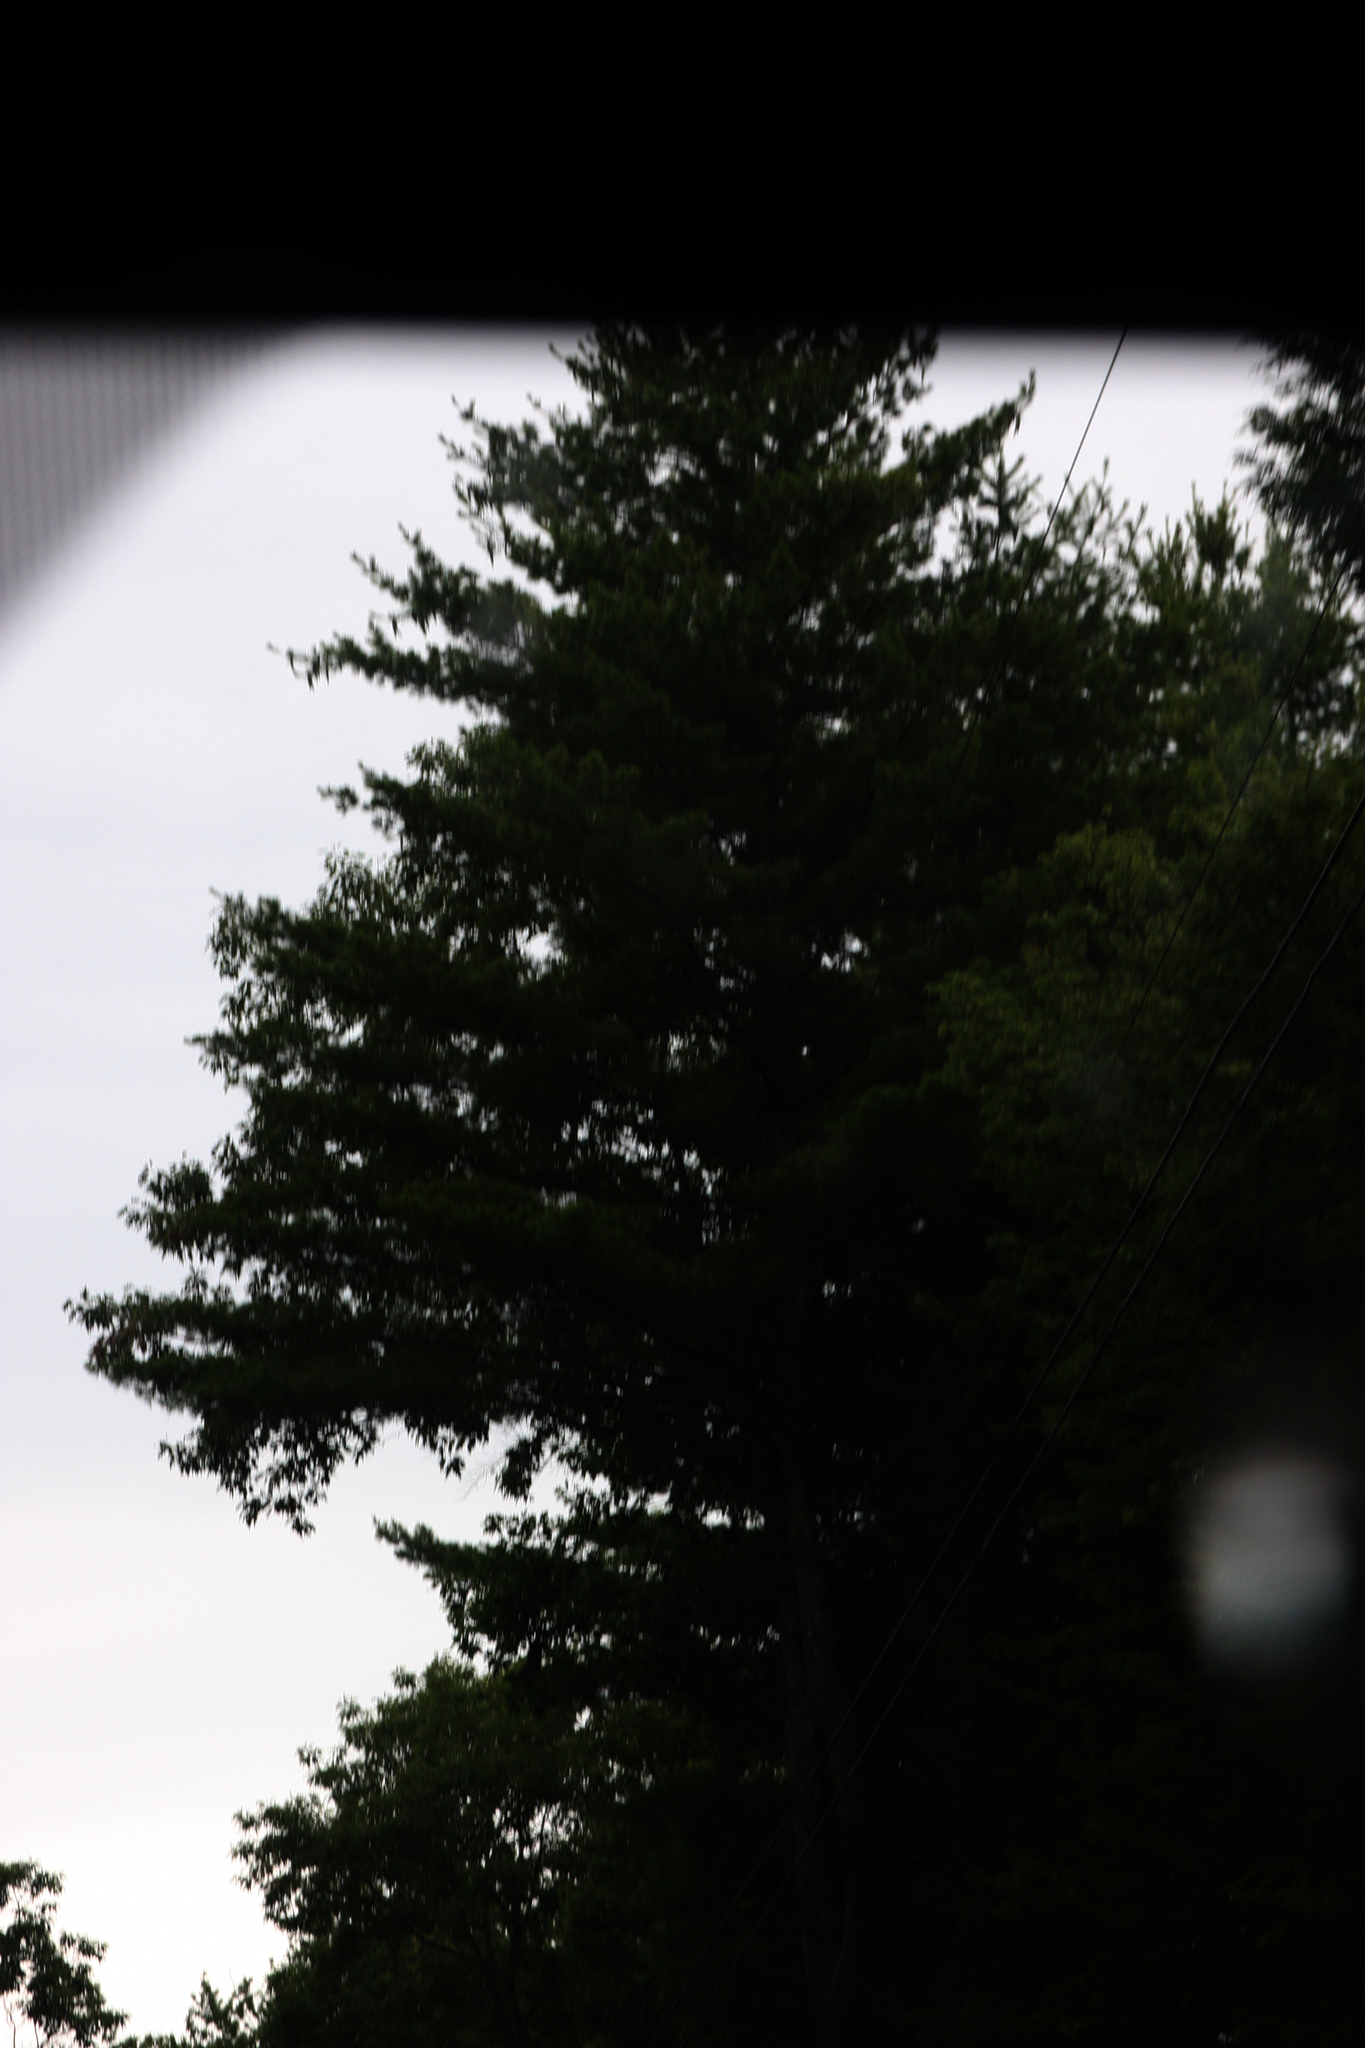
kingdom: Plantae
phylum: Tracheophyta
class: Pinopsida
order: Pinales
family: Pinaceae
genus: Pinus
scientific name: Pinus strobus
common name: Weymouth pine
